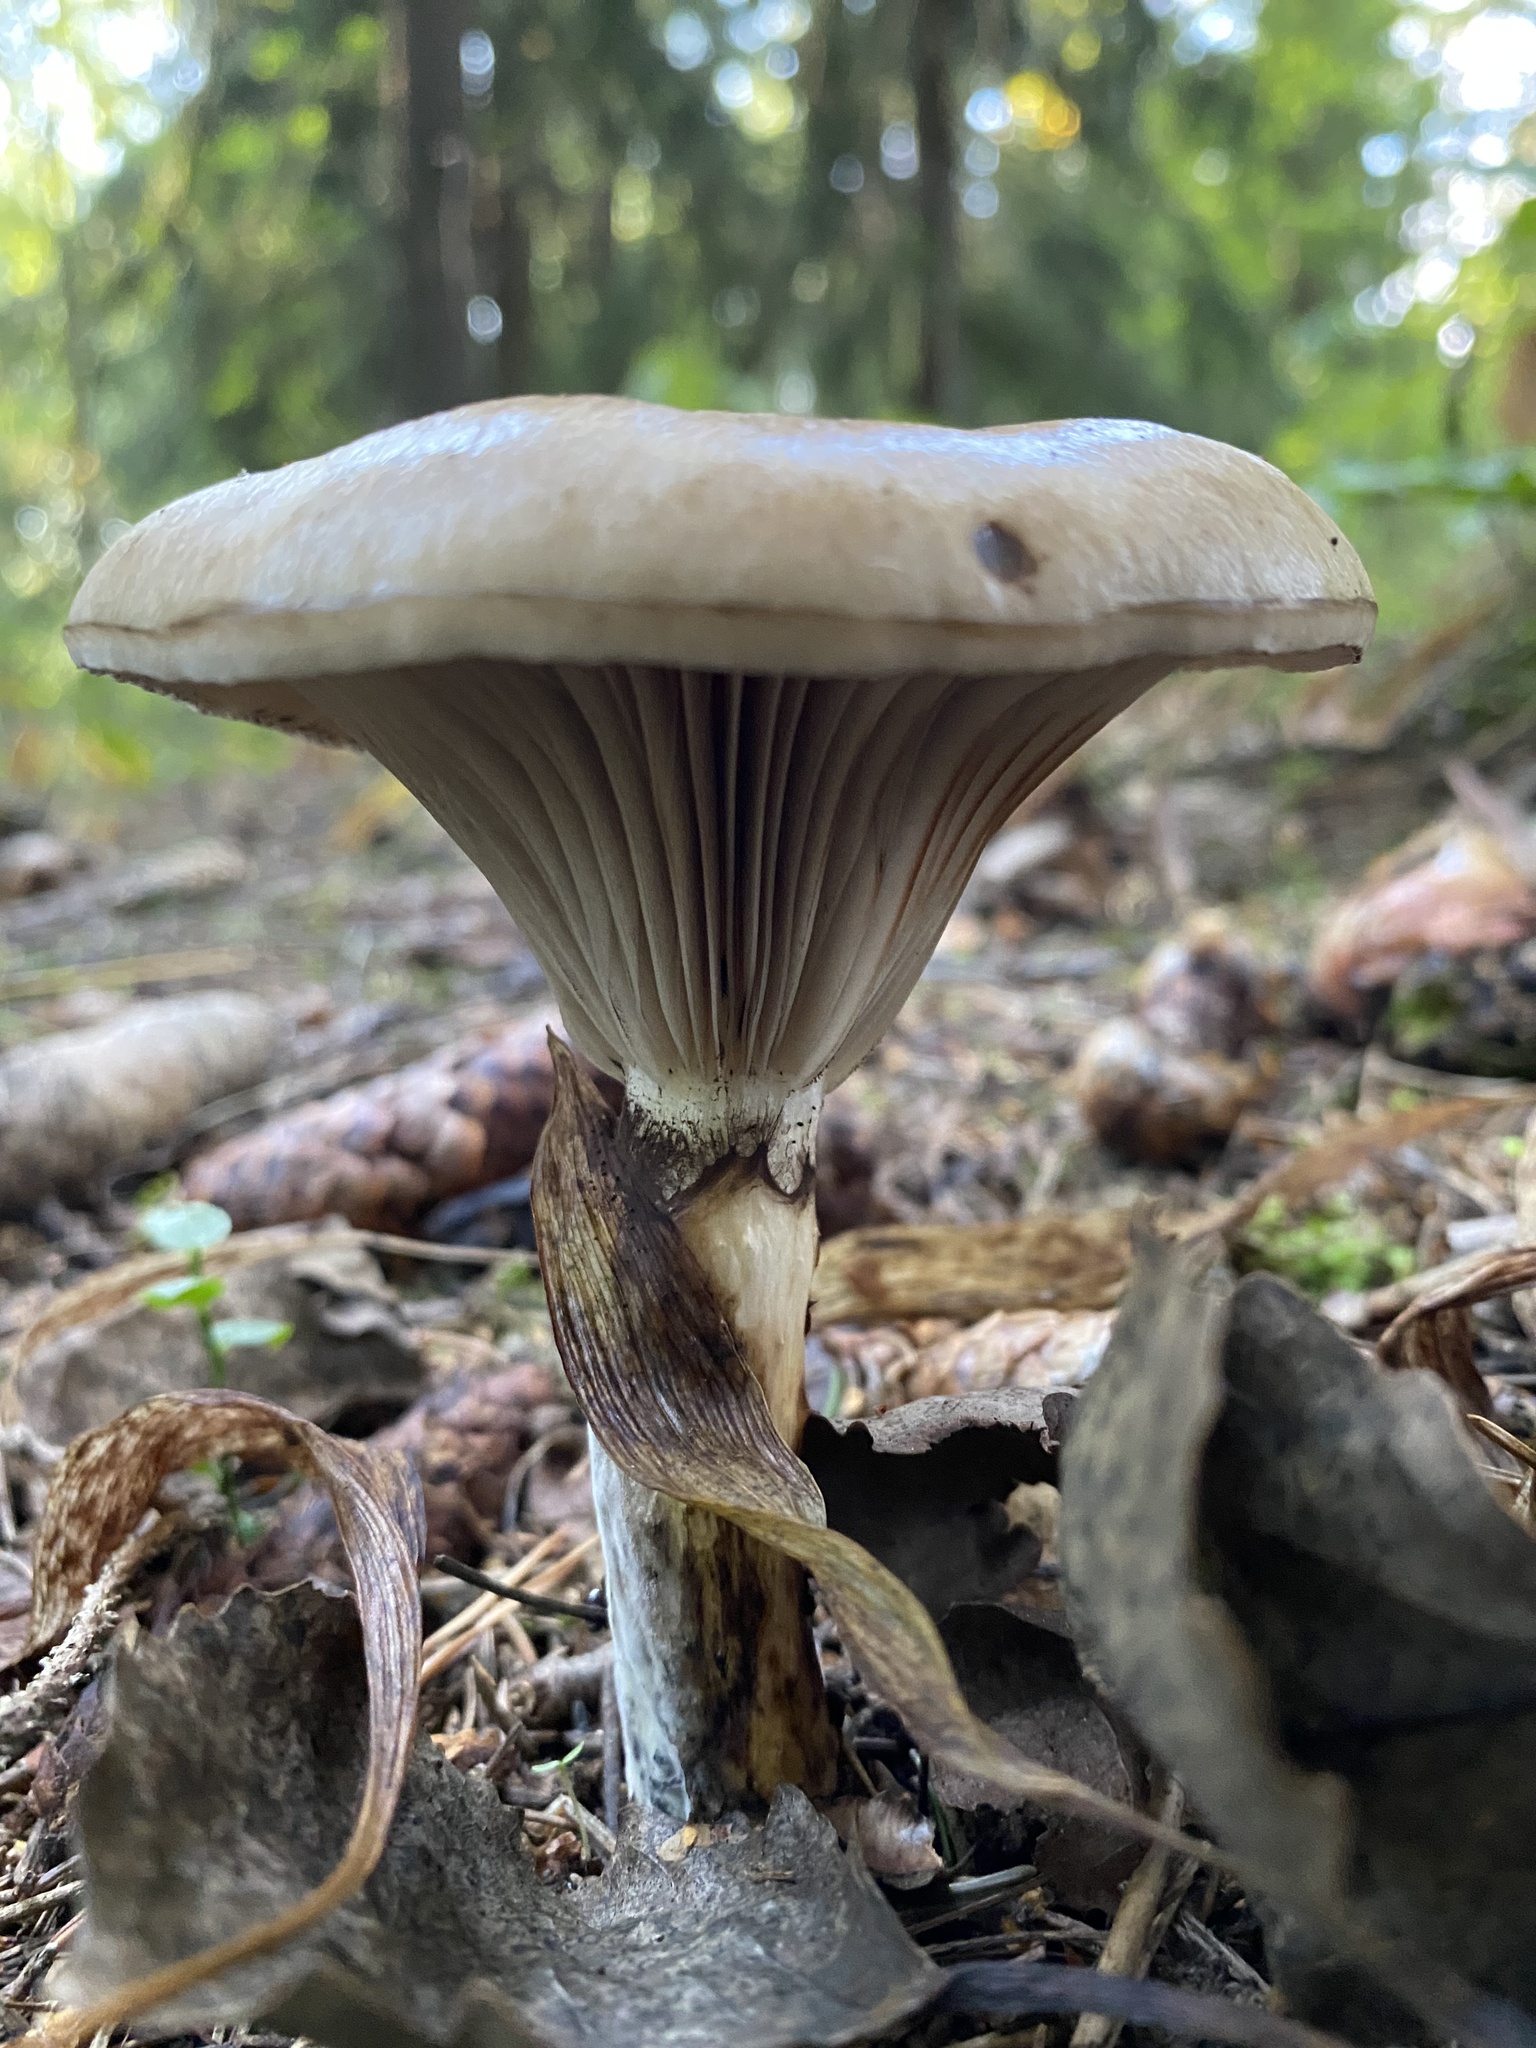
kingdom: Fungi
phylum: Basidiomycota
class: Agaricomycetes
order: Boletales
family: Gomphidiaceae
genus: Gomphidius
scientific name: Gomphidius glutinosus
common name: Slimy spike
